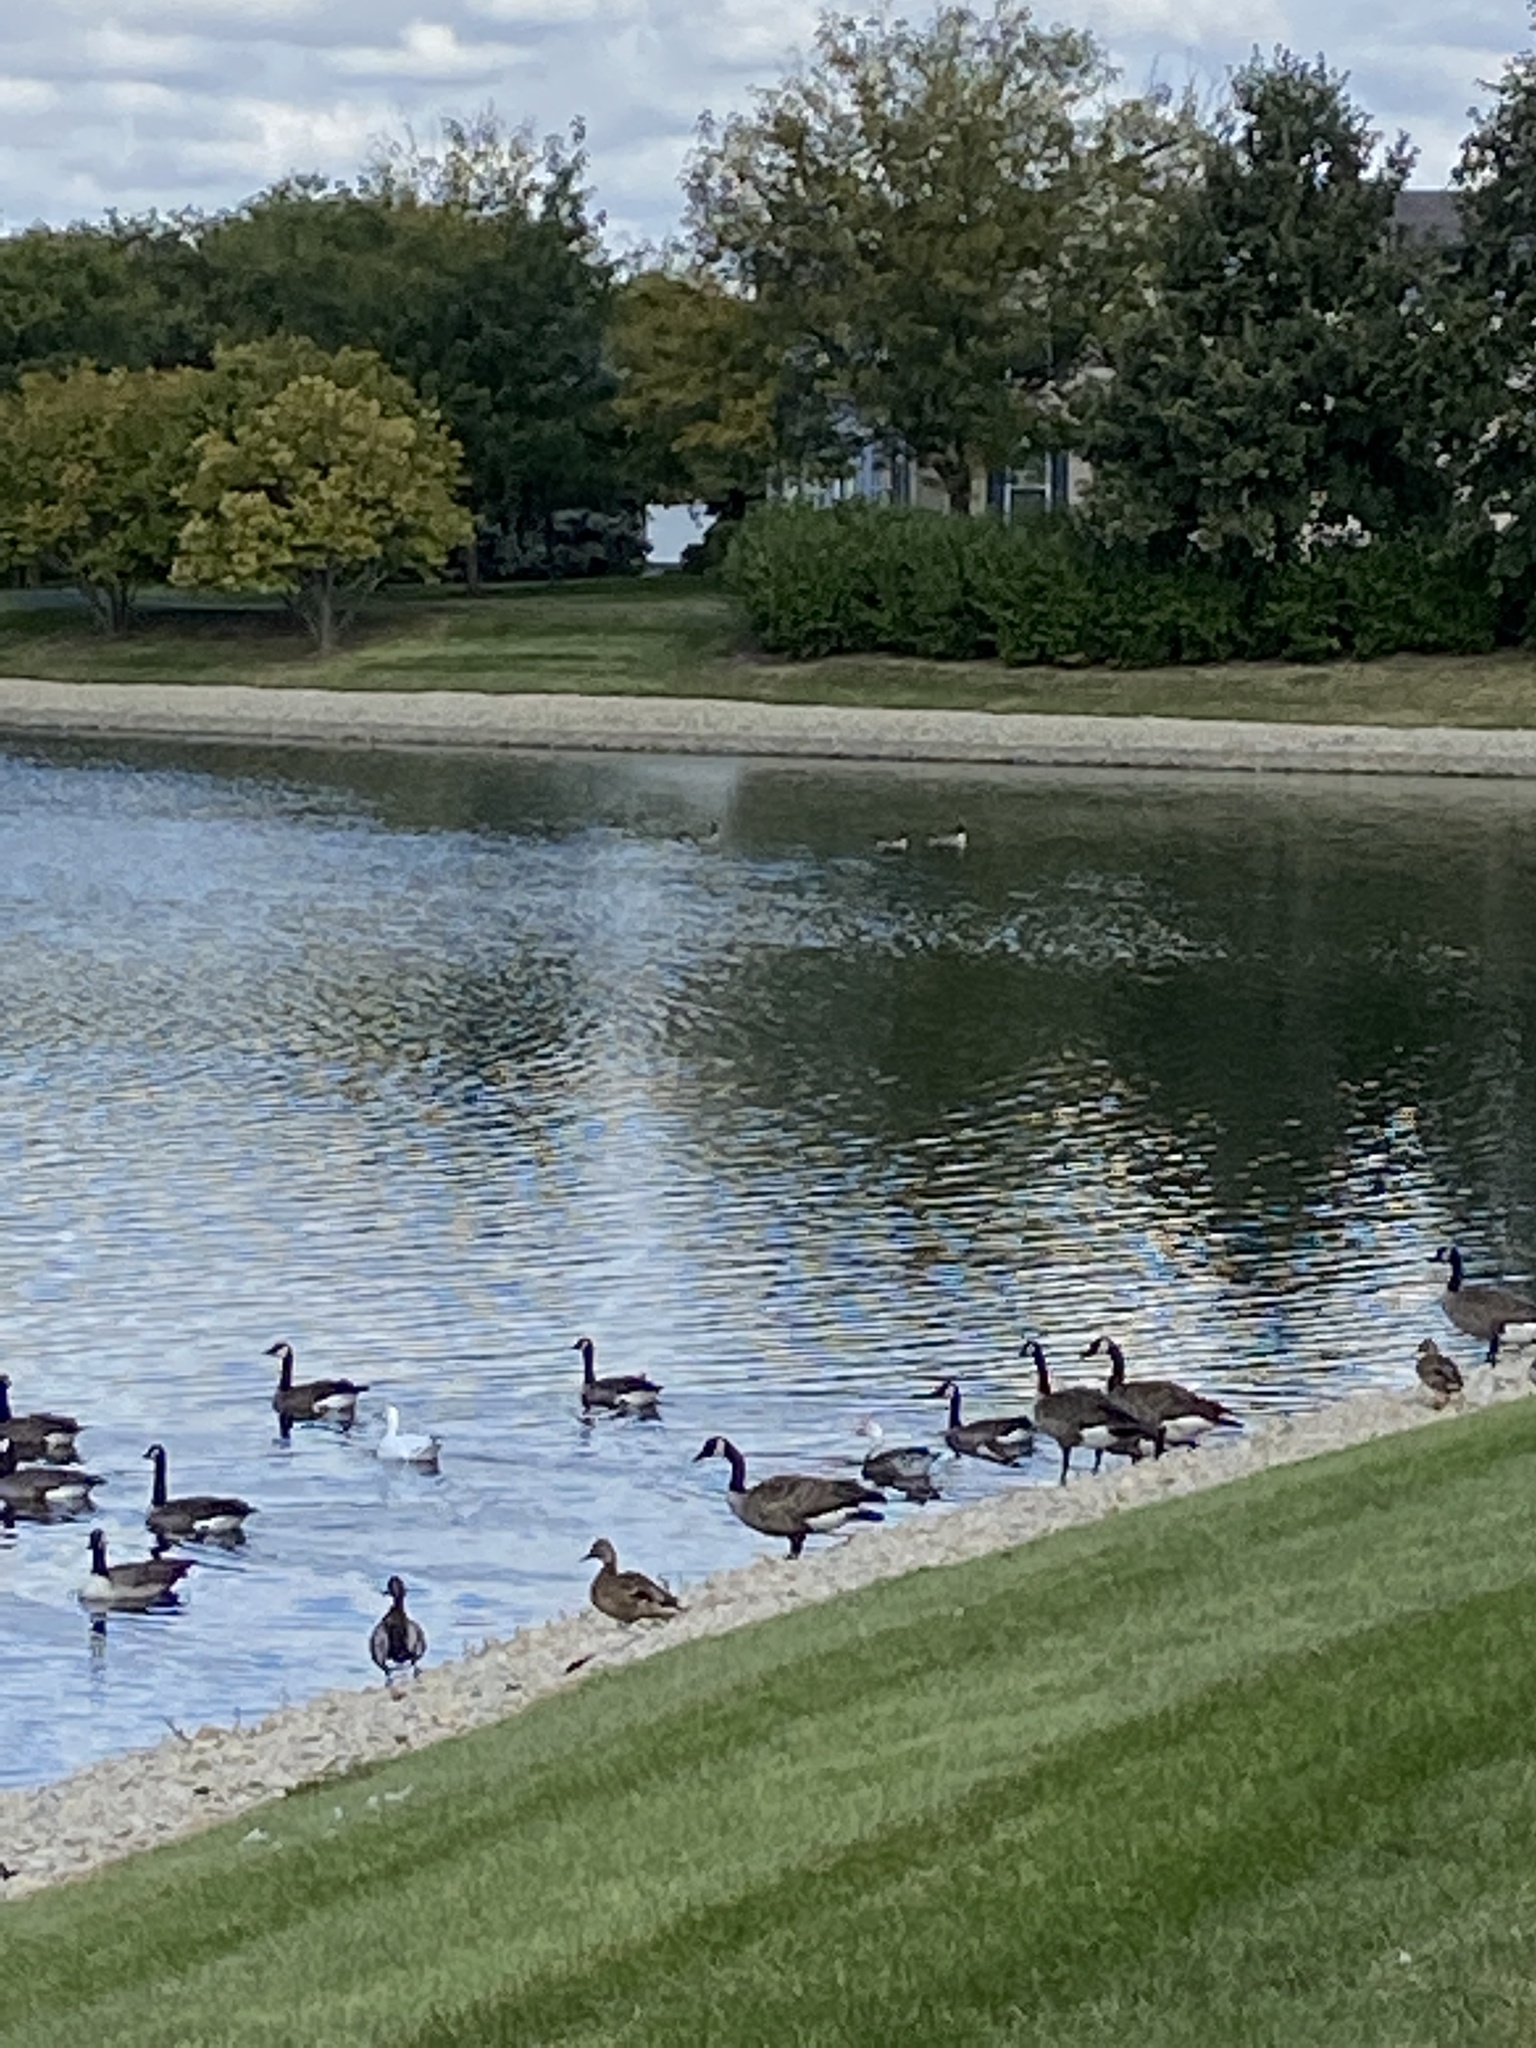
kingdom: Animalia
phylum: Chordata
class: Aves
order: Anseriformes
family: Anatidae
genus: Anser
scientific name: Anser caerulescens
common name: Snow goose
